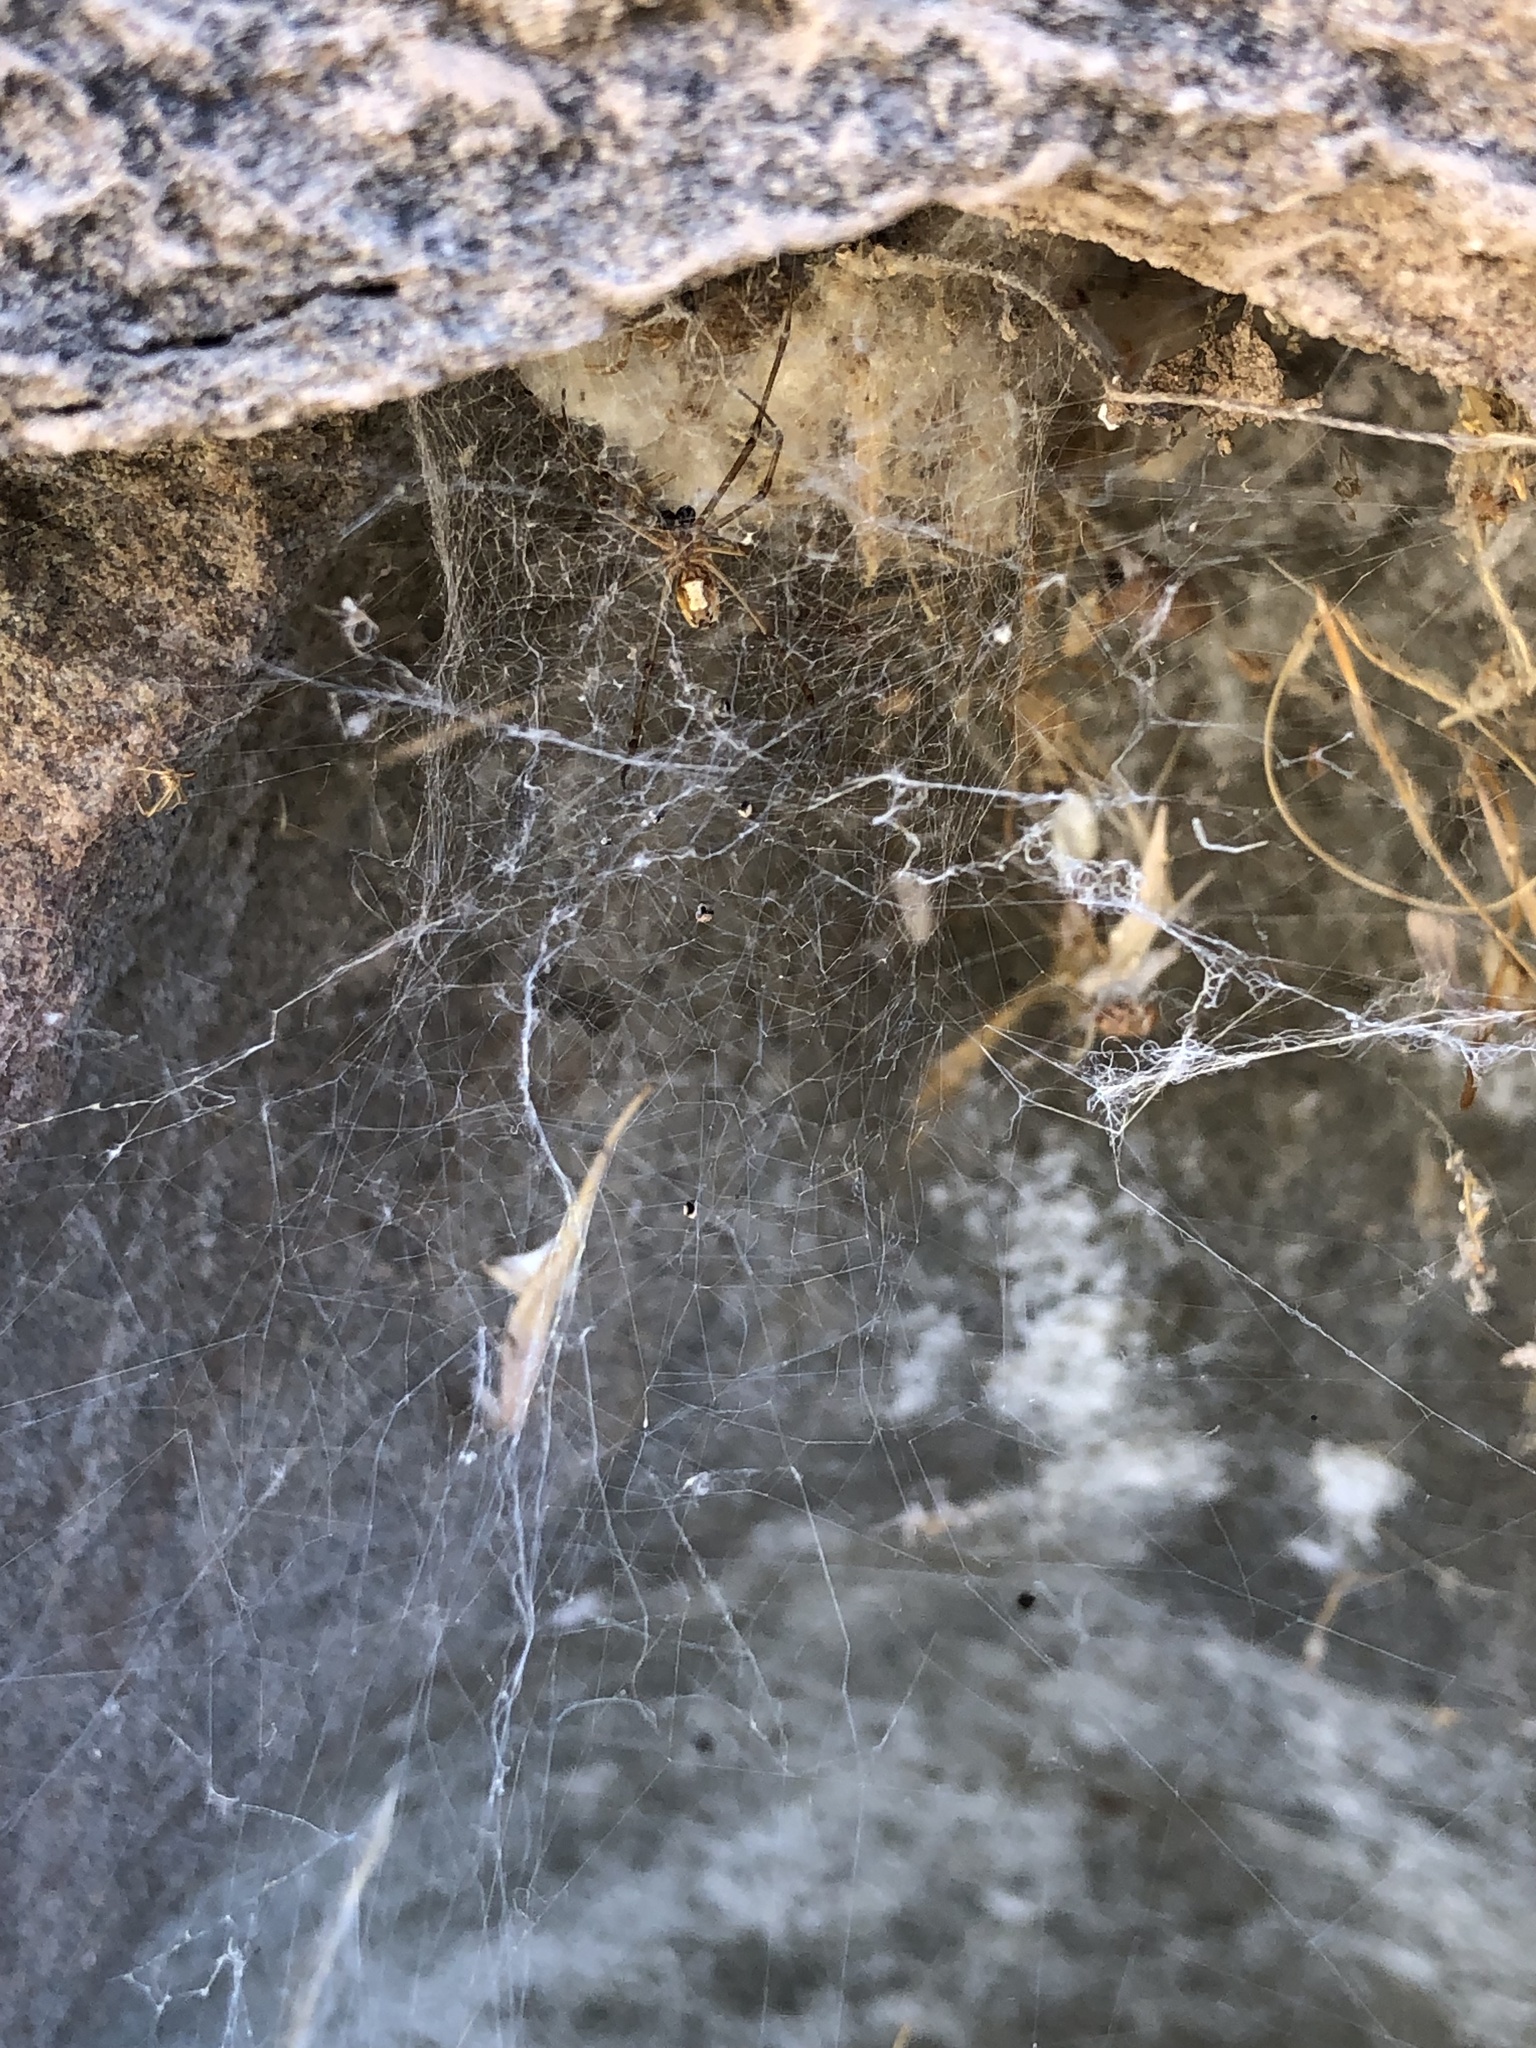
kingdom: Animalia
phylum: Arthropoda
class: Arachnida
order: Araneae
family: Theridiidae
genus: Latrodectus
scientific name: Latrodectus hesperus
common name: Western black widow
